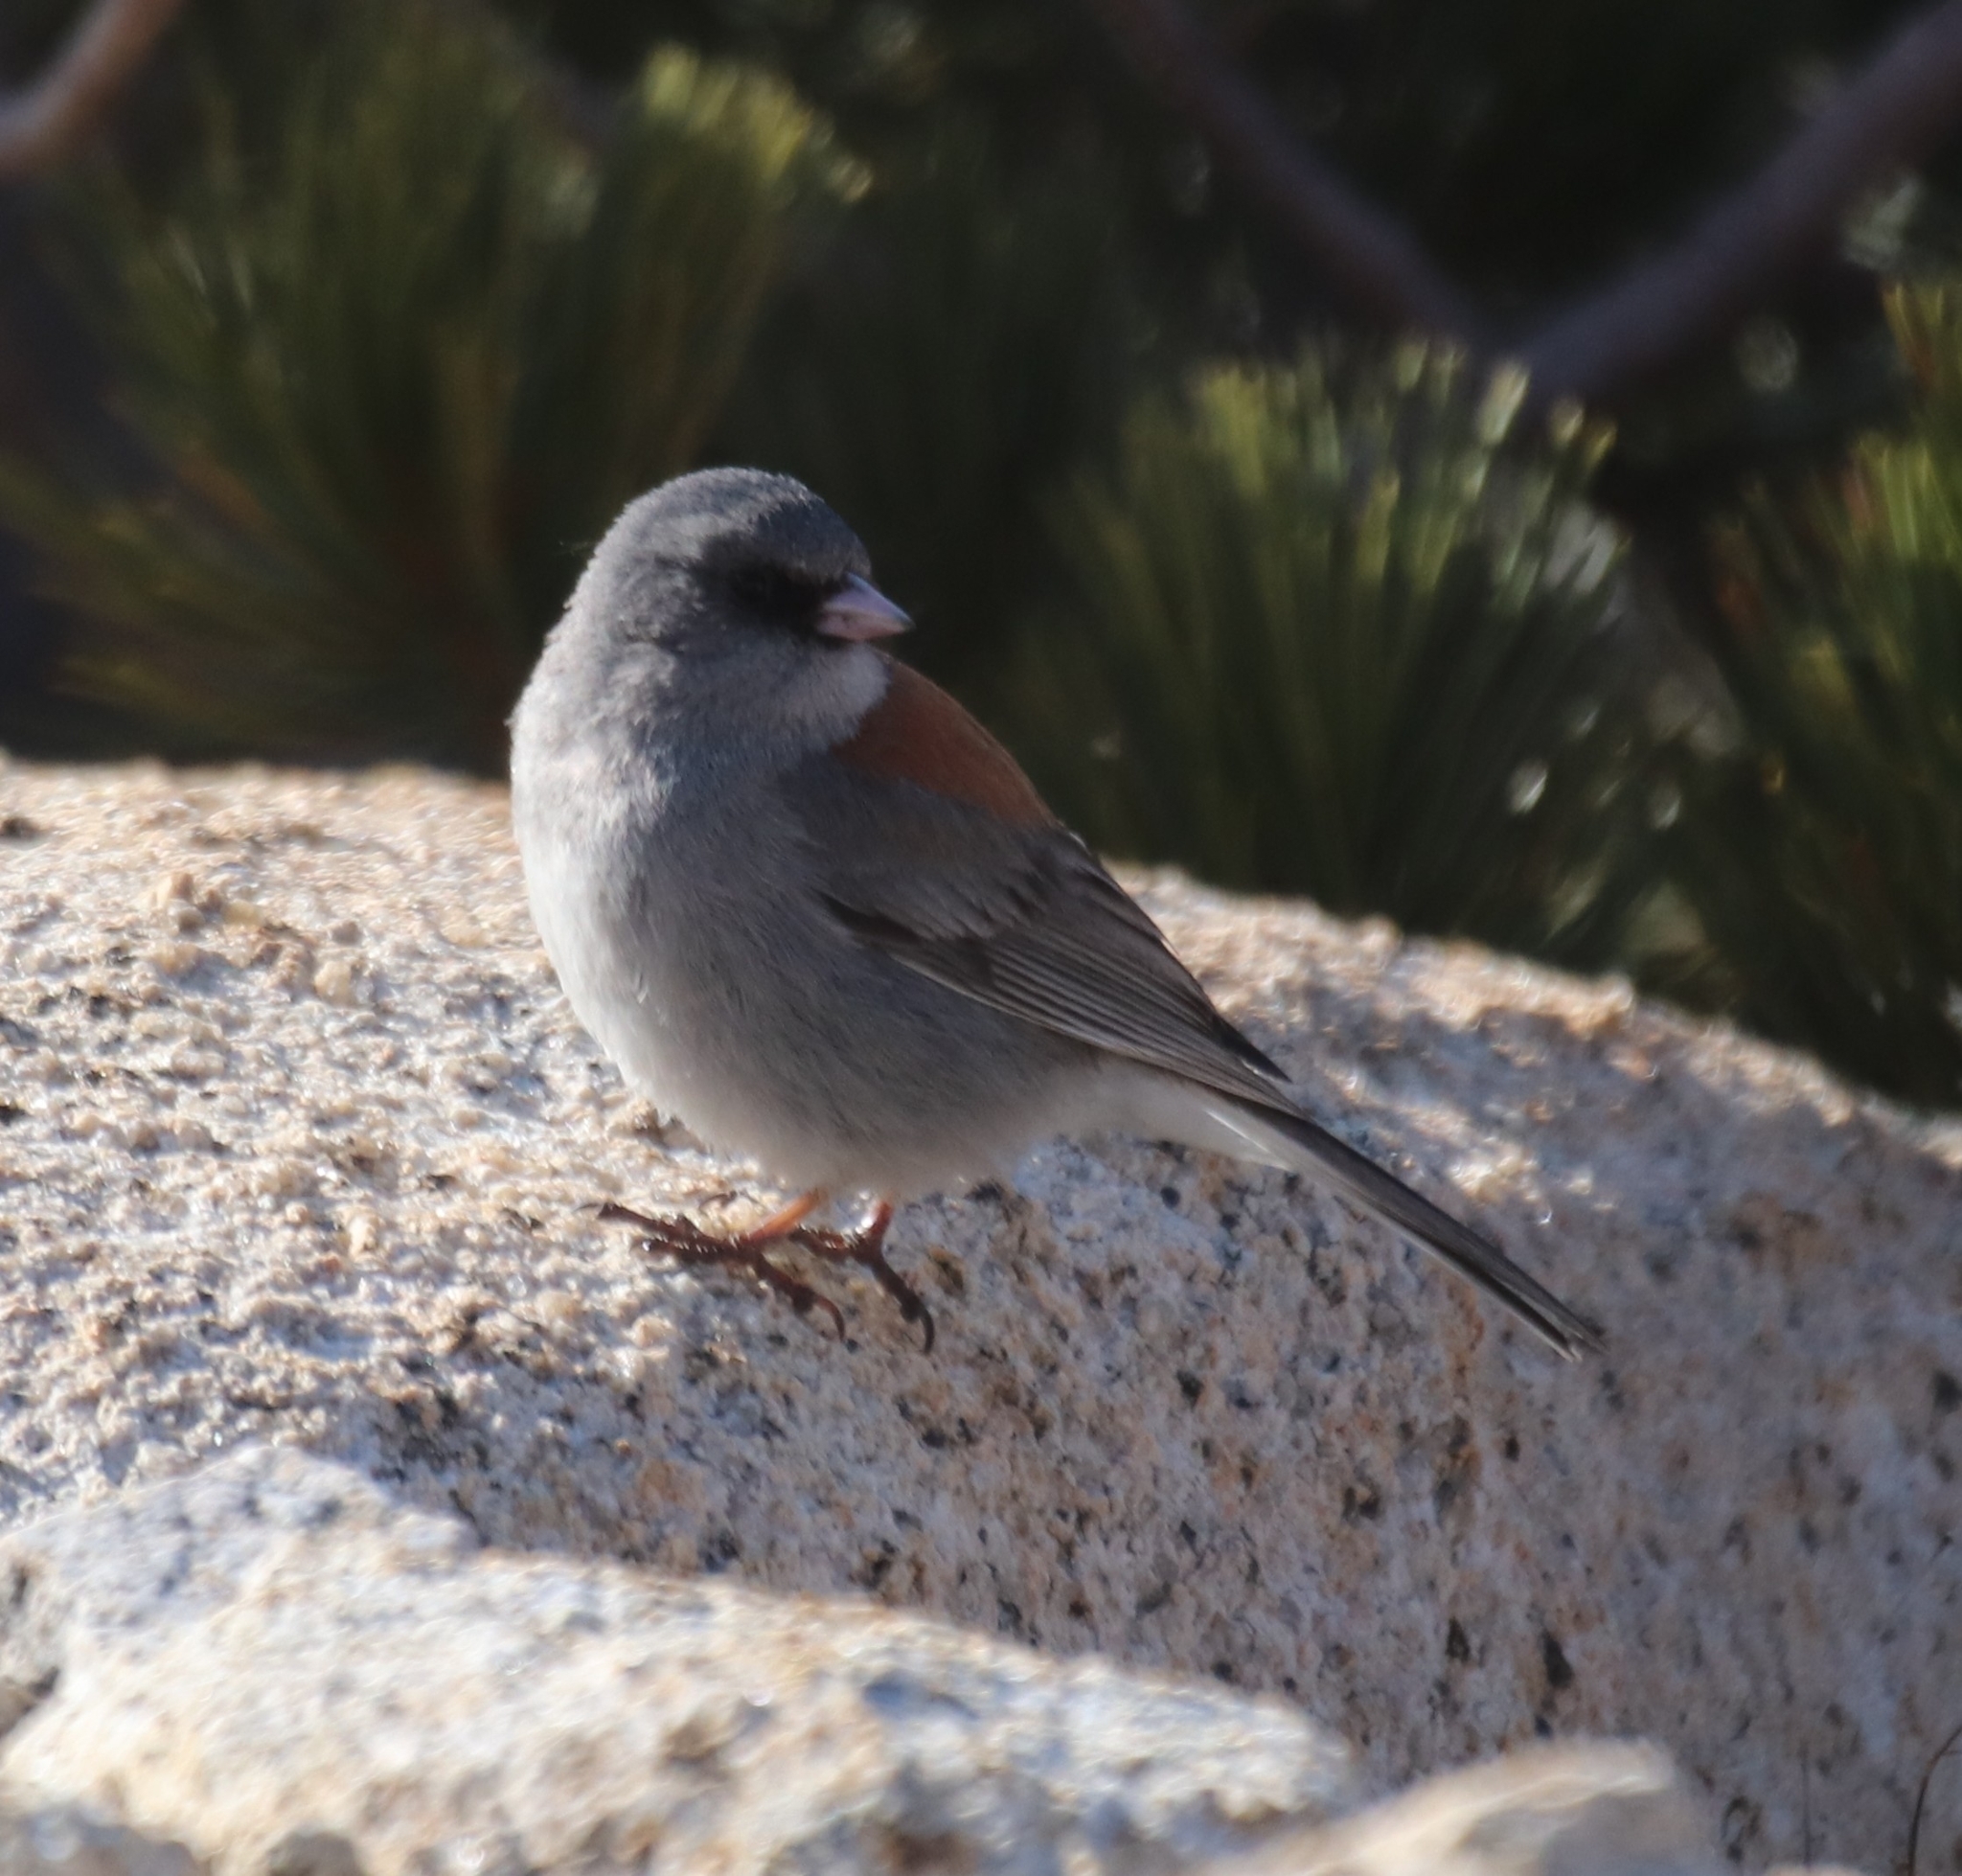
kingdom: Animalia
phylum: Chordata
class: Aves
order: Passeriformes
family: Passerellidae
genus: Junco
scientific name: Junco hyemalis
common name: Dark-eyed junco
